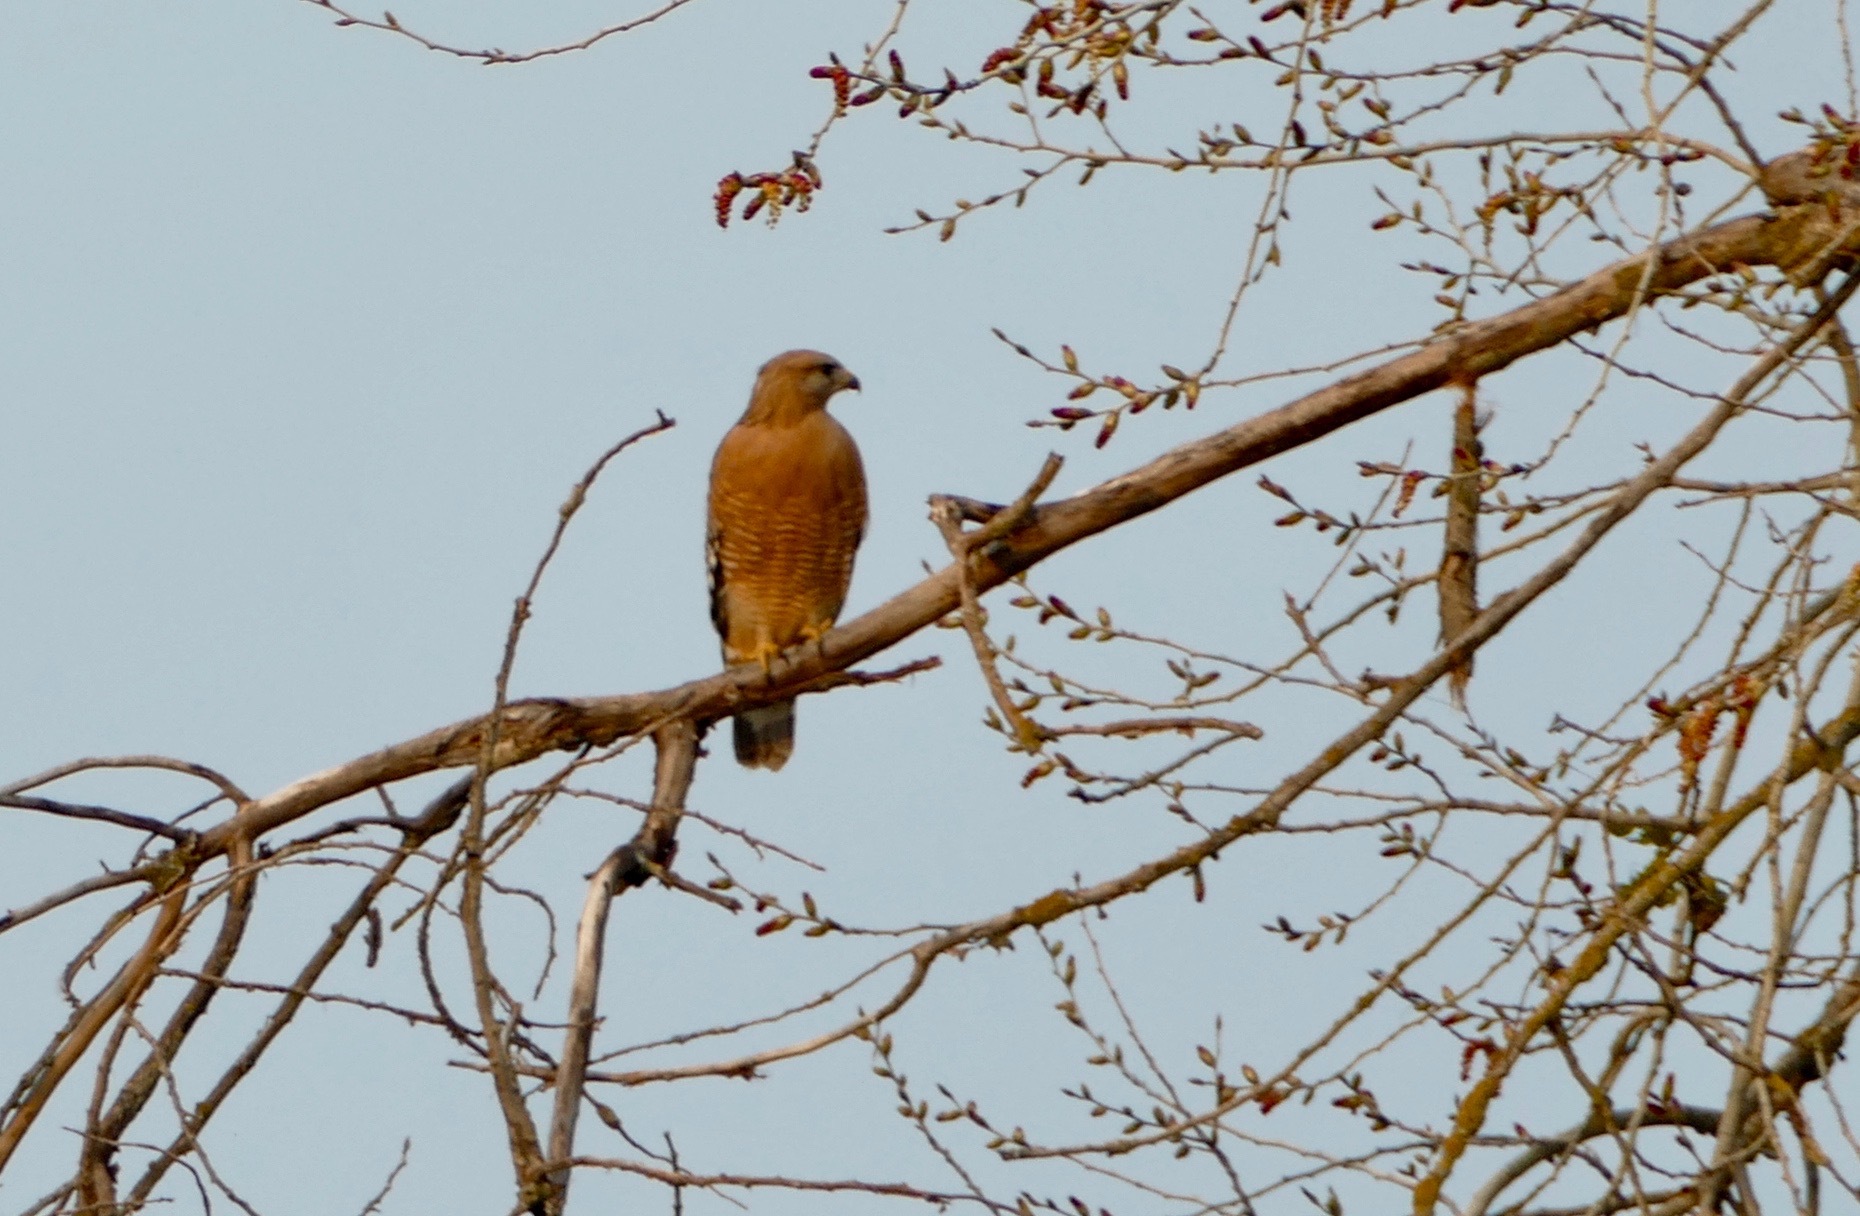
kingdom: Animalia
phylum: Chordata
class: Aves
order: Accipitriformes
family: Accipitridae
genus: Buteo
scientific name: Buteo lineatus
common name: Red-shouldered hawk
